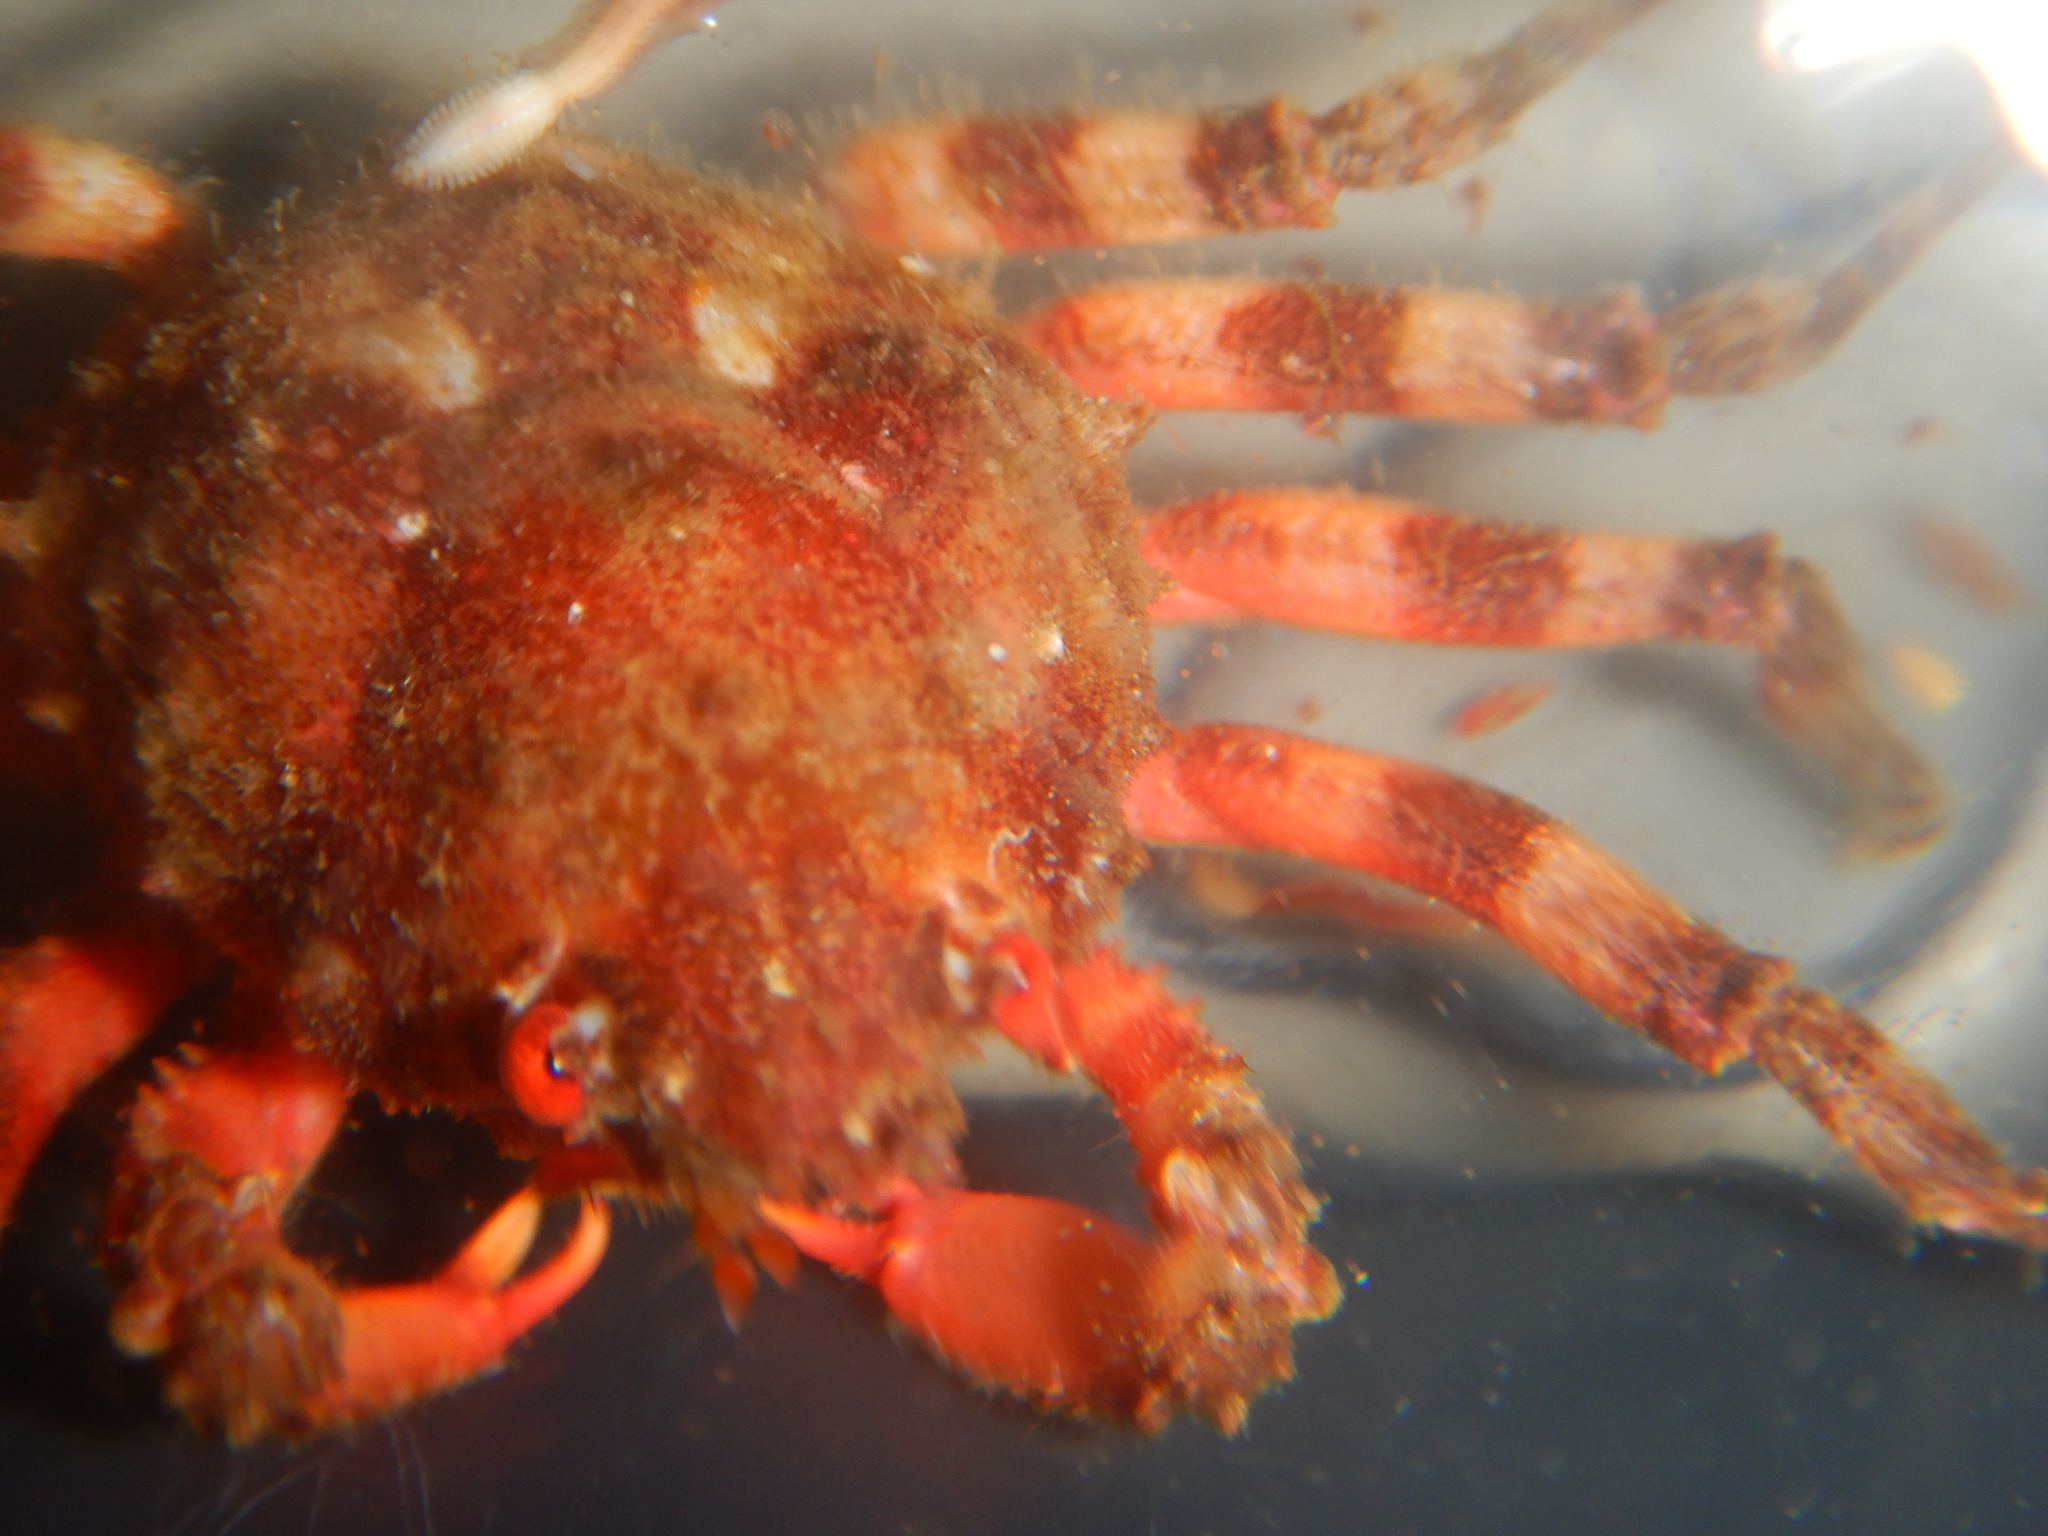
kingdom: Animalia
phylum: Arthropoda
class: Malacostraca
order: Decapoda
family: Epialtidae
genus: Herbstia
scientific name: Herbstia condyliata
